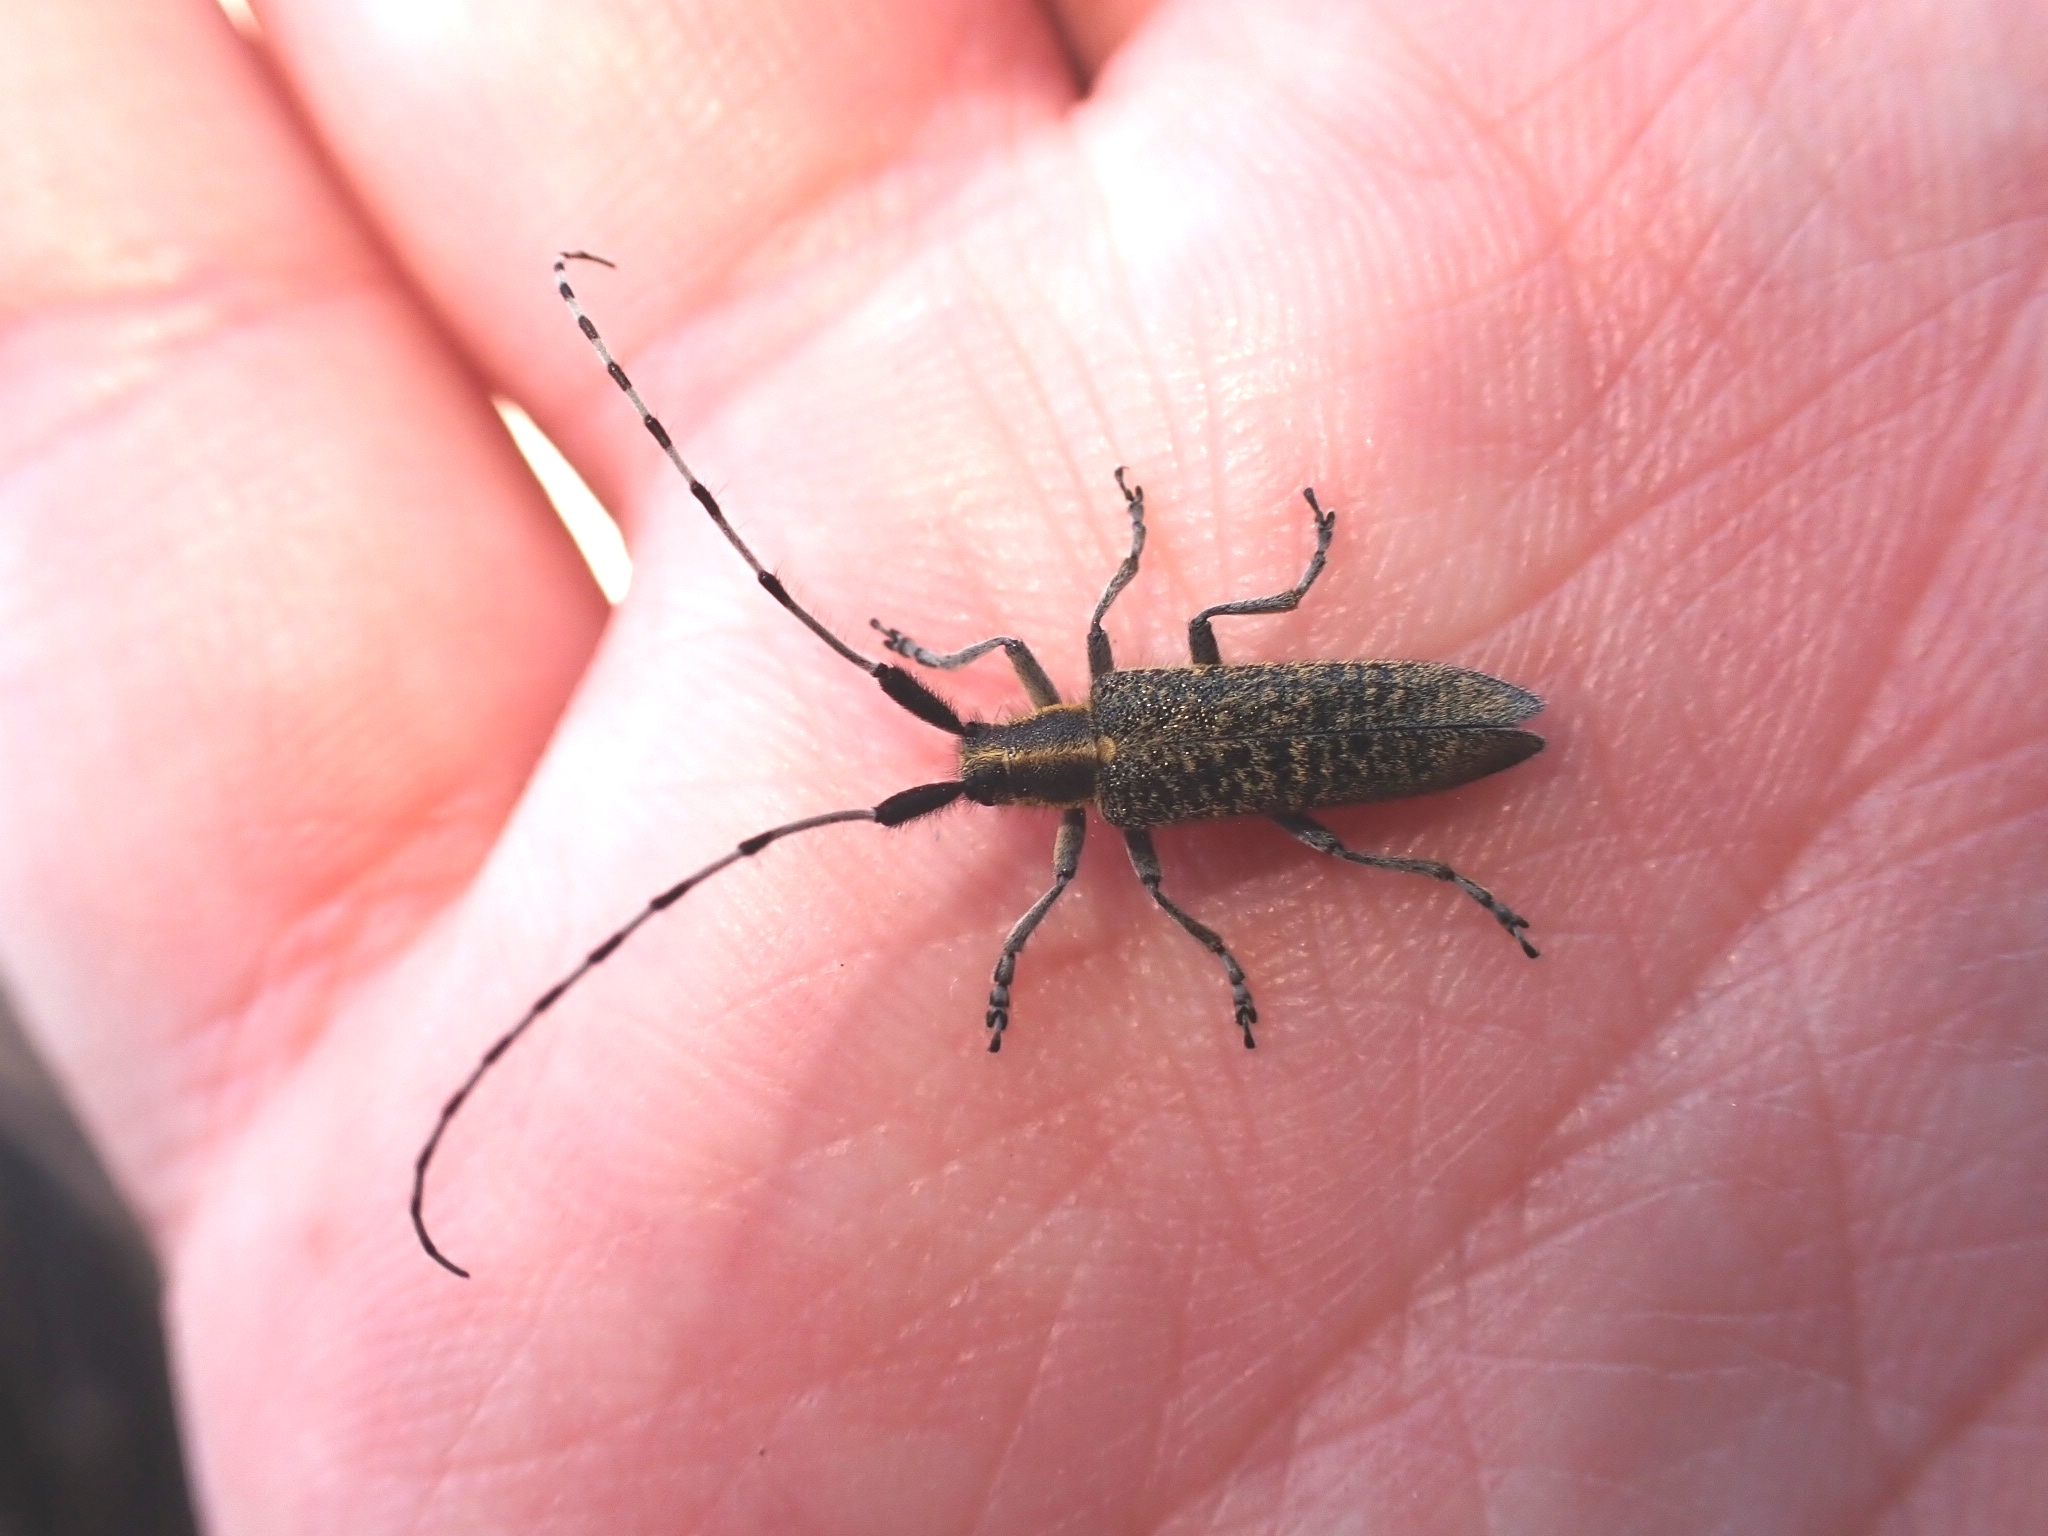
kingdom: Animalia
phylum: Arthropoda
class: Insecta
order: Coleoptera
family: Cerambycidae
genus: Agapanthia
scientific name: Agapanthia villosoviridescens
